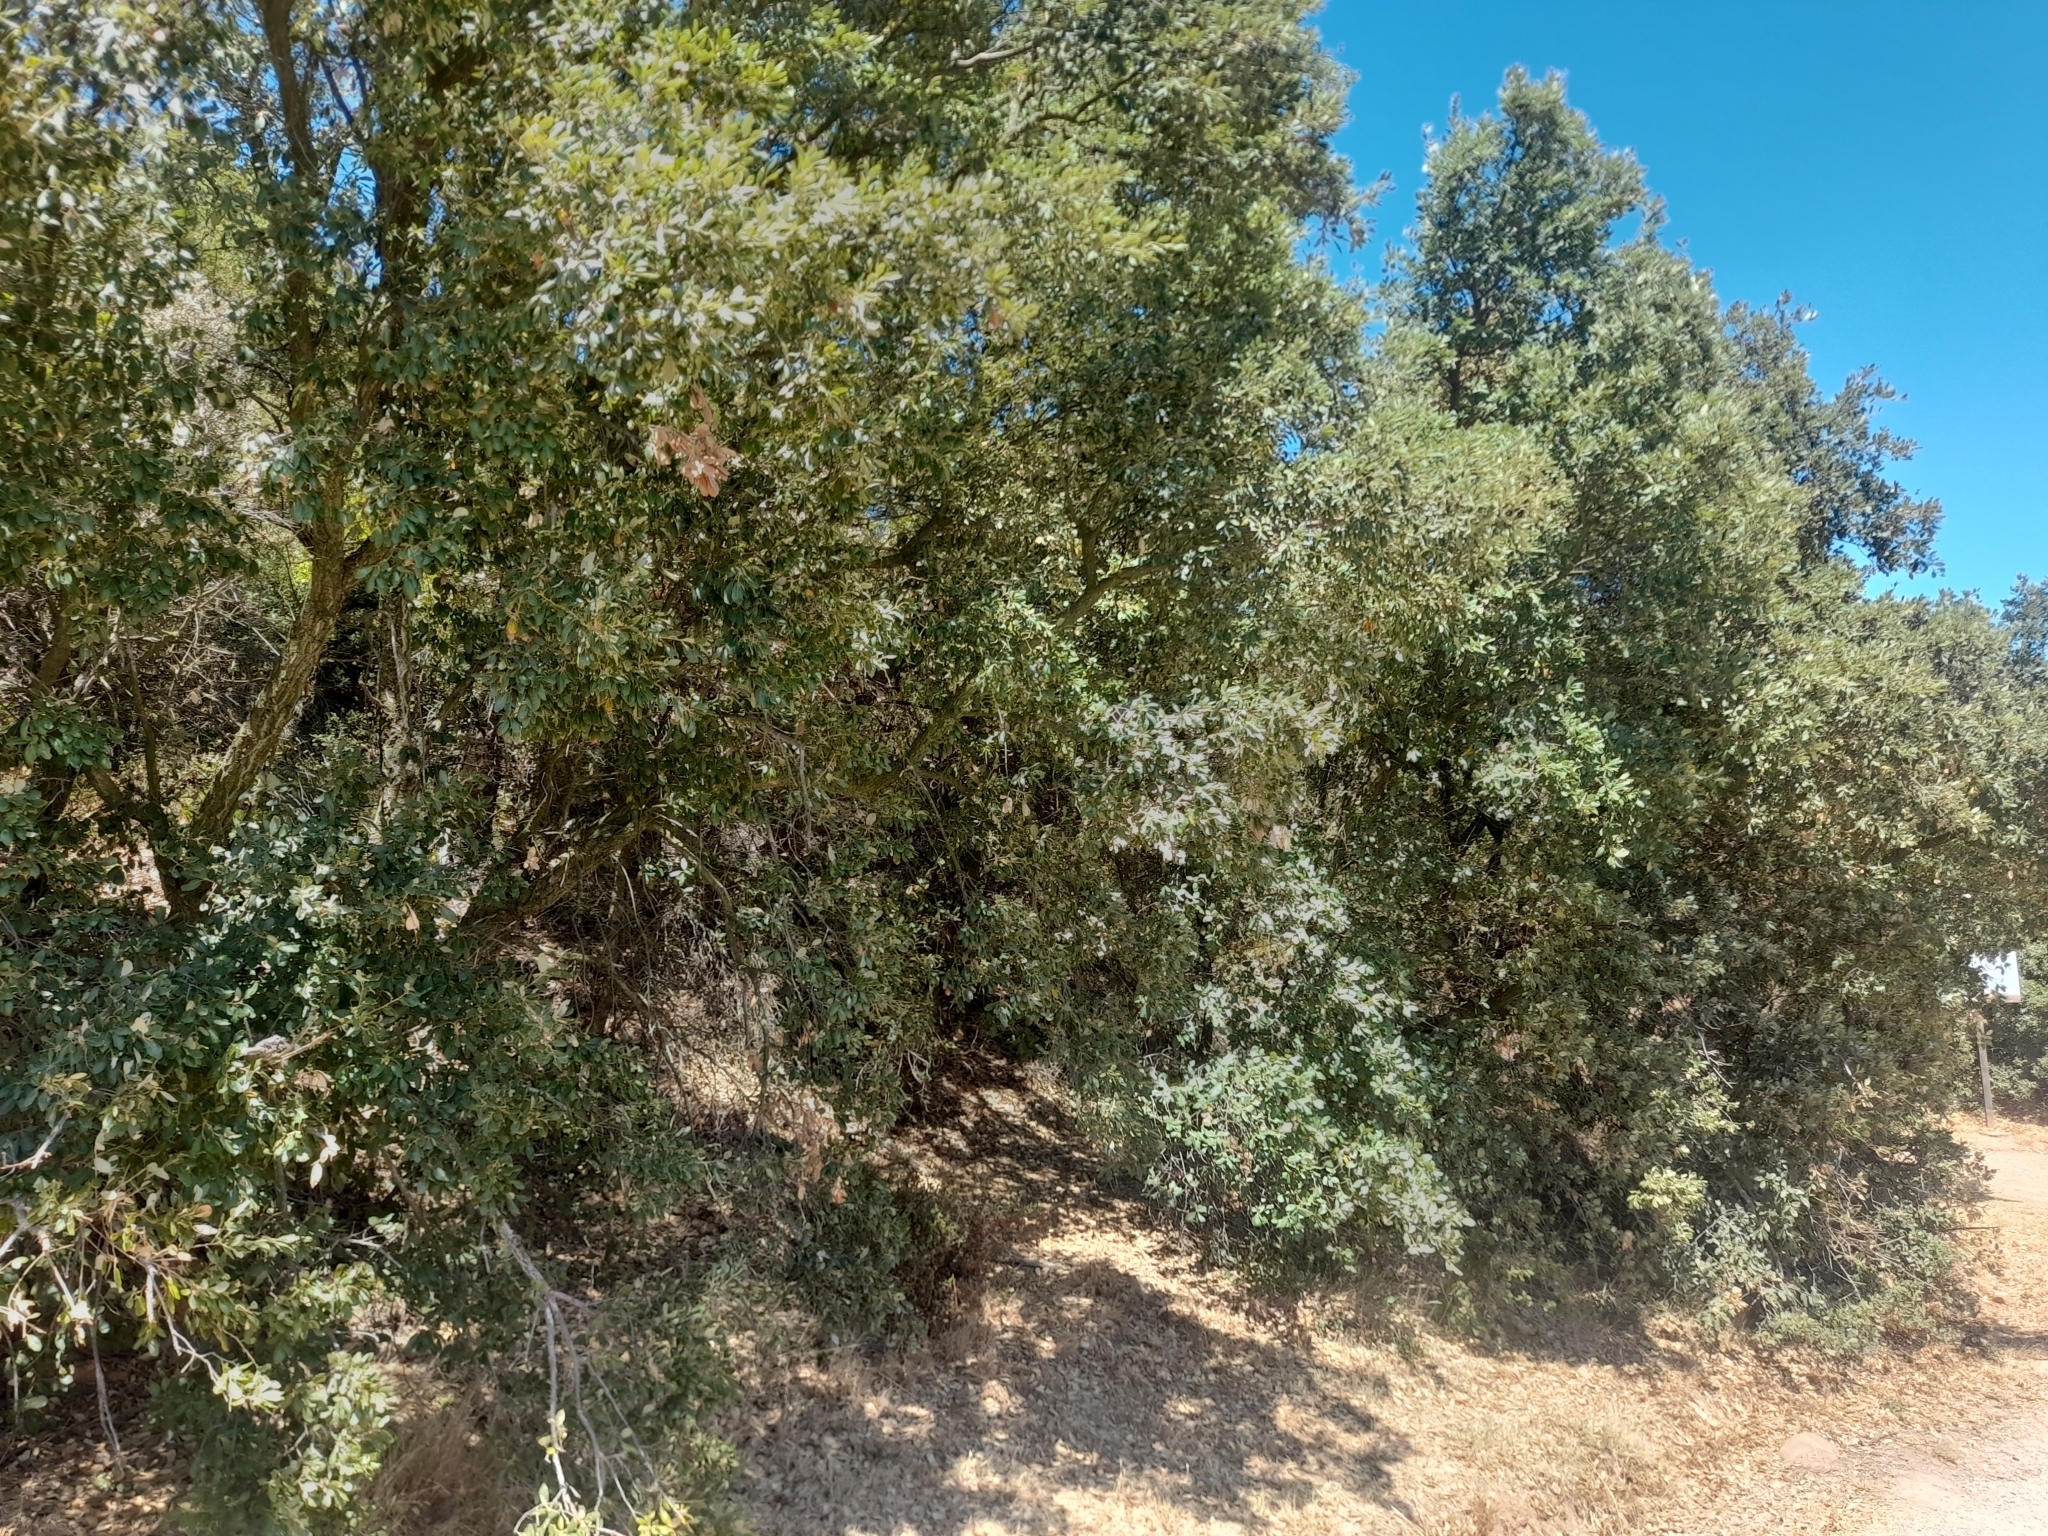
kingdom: Plantae
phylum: Tracheophyta
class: Magnoliopsida
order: Fagales
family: Fagaceae
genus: Quercus
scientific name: Quercus suber
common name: Cork oak
